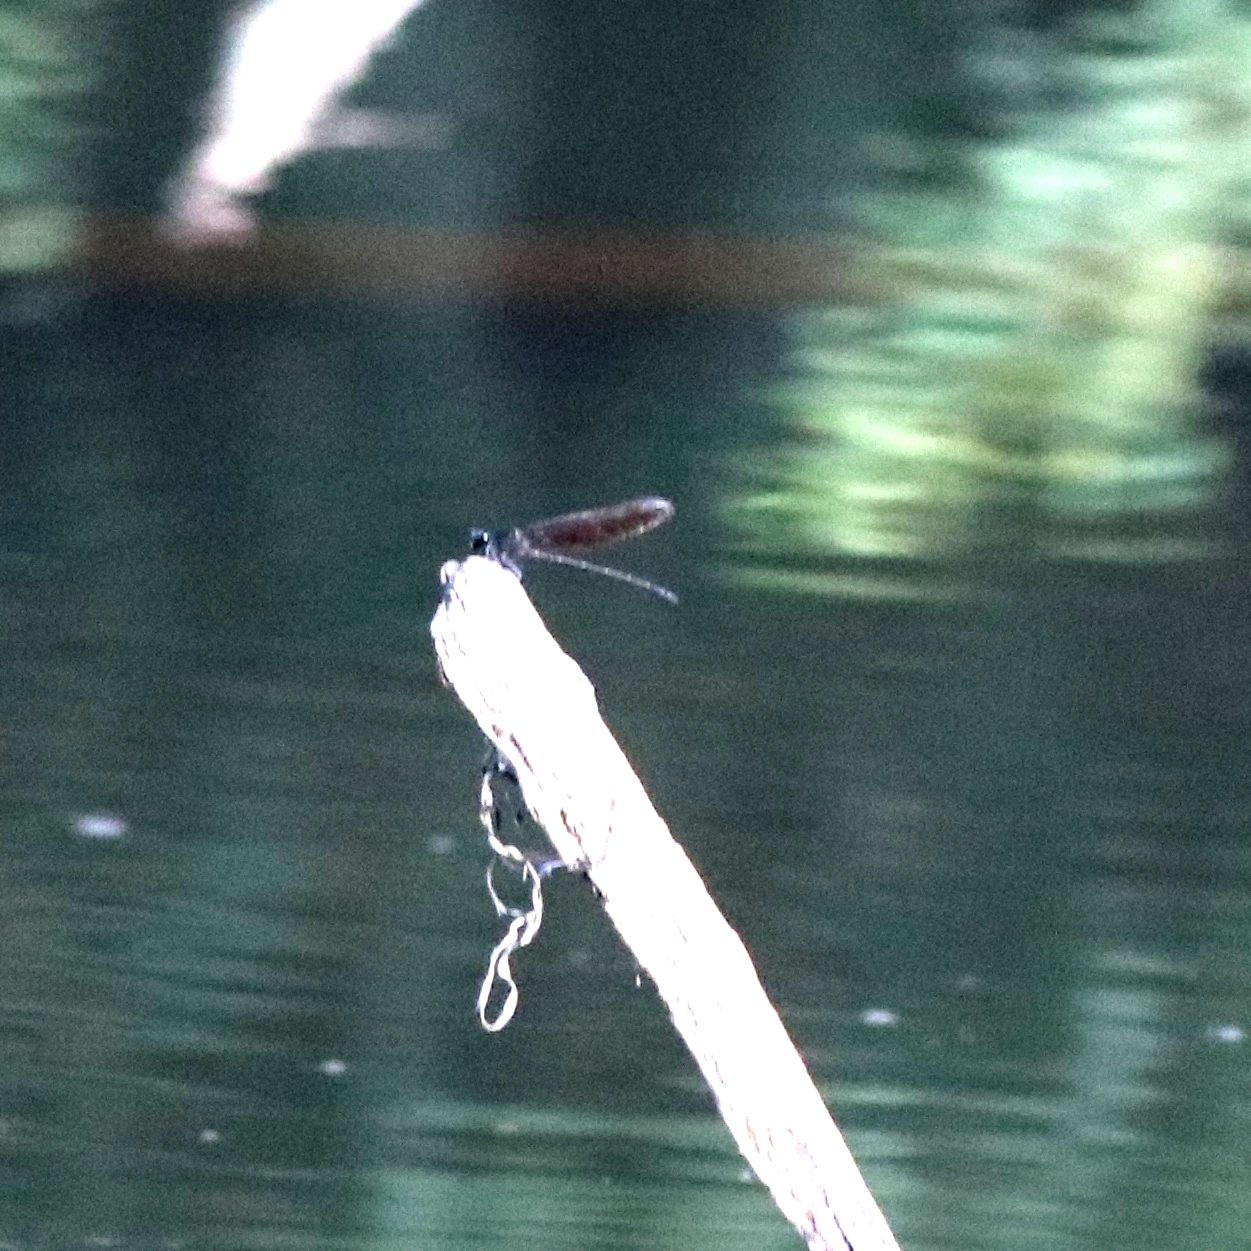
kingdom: Animalia
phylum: Arthropoda
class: Insecta
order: Odonata
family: Euphaeidae
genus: Dysphaea
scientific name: Dysphaea ethela
